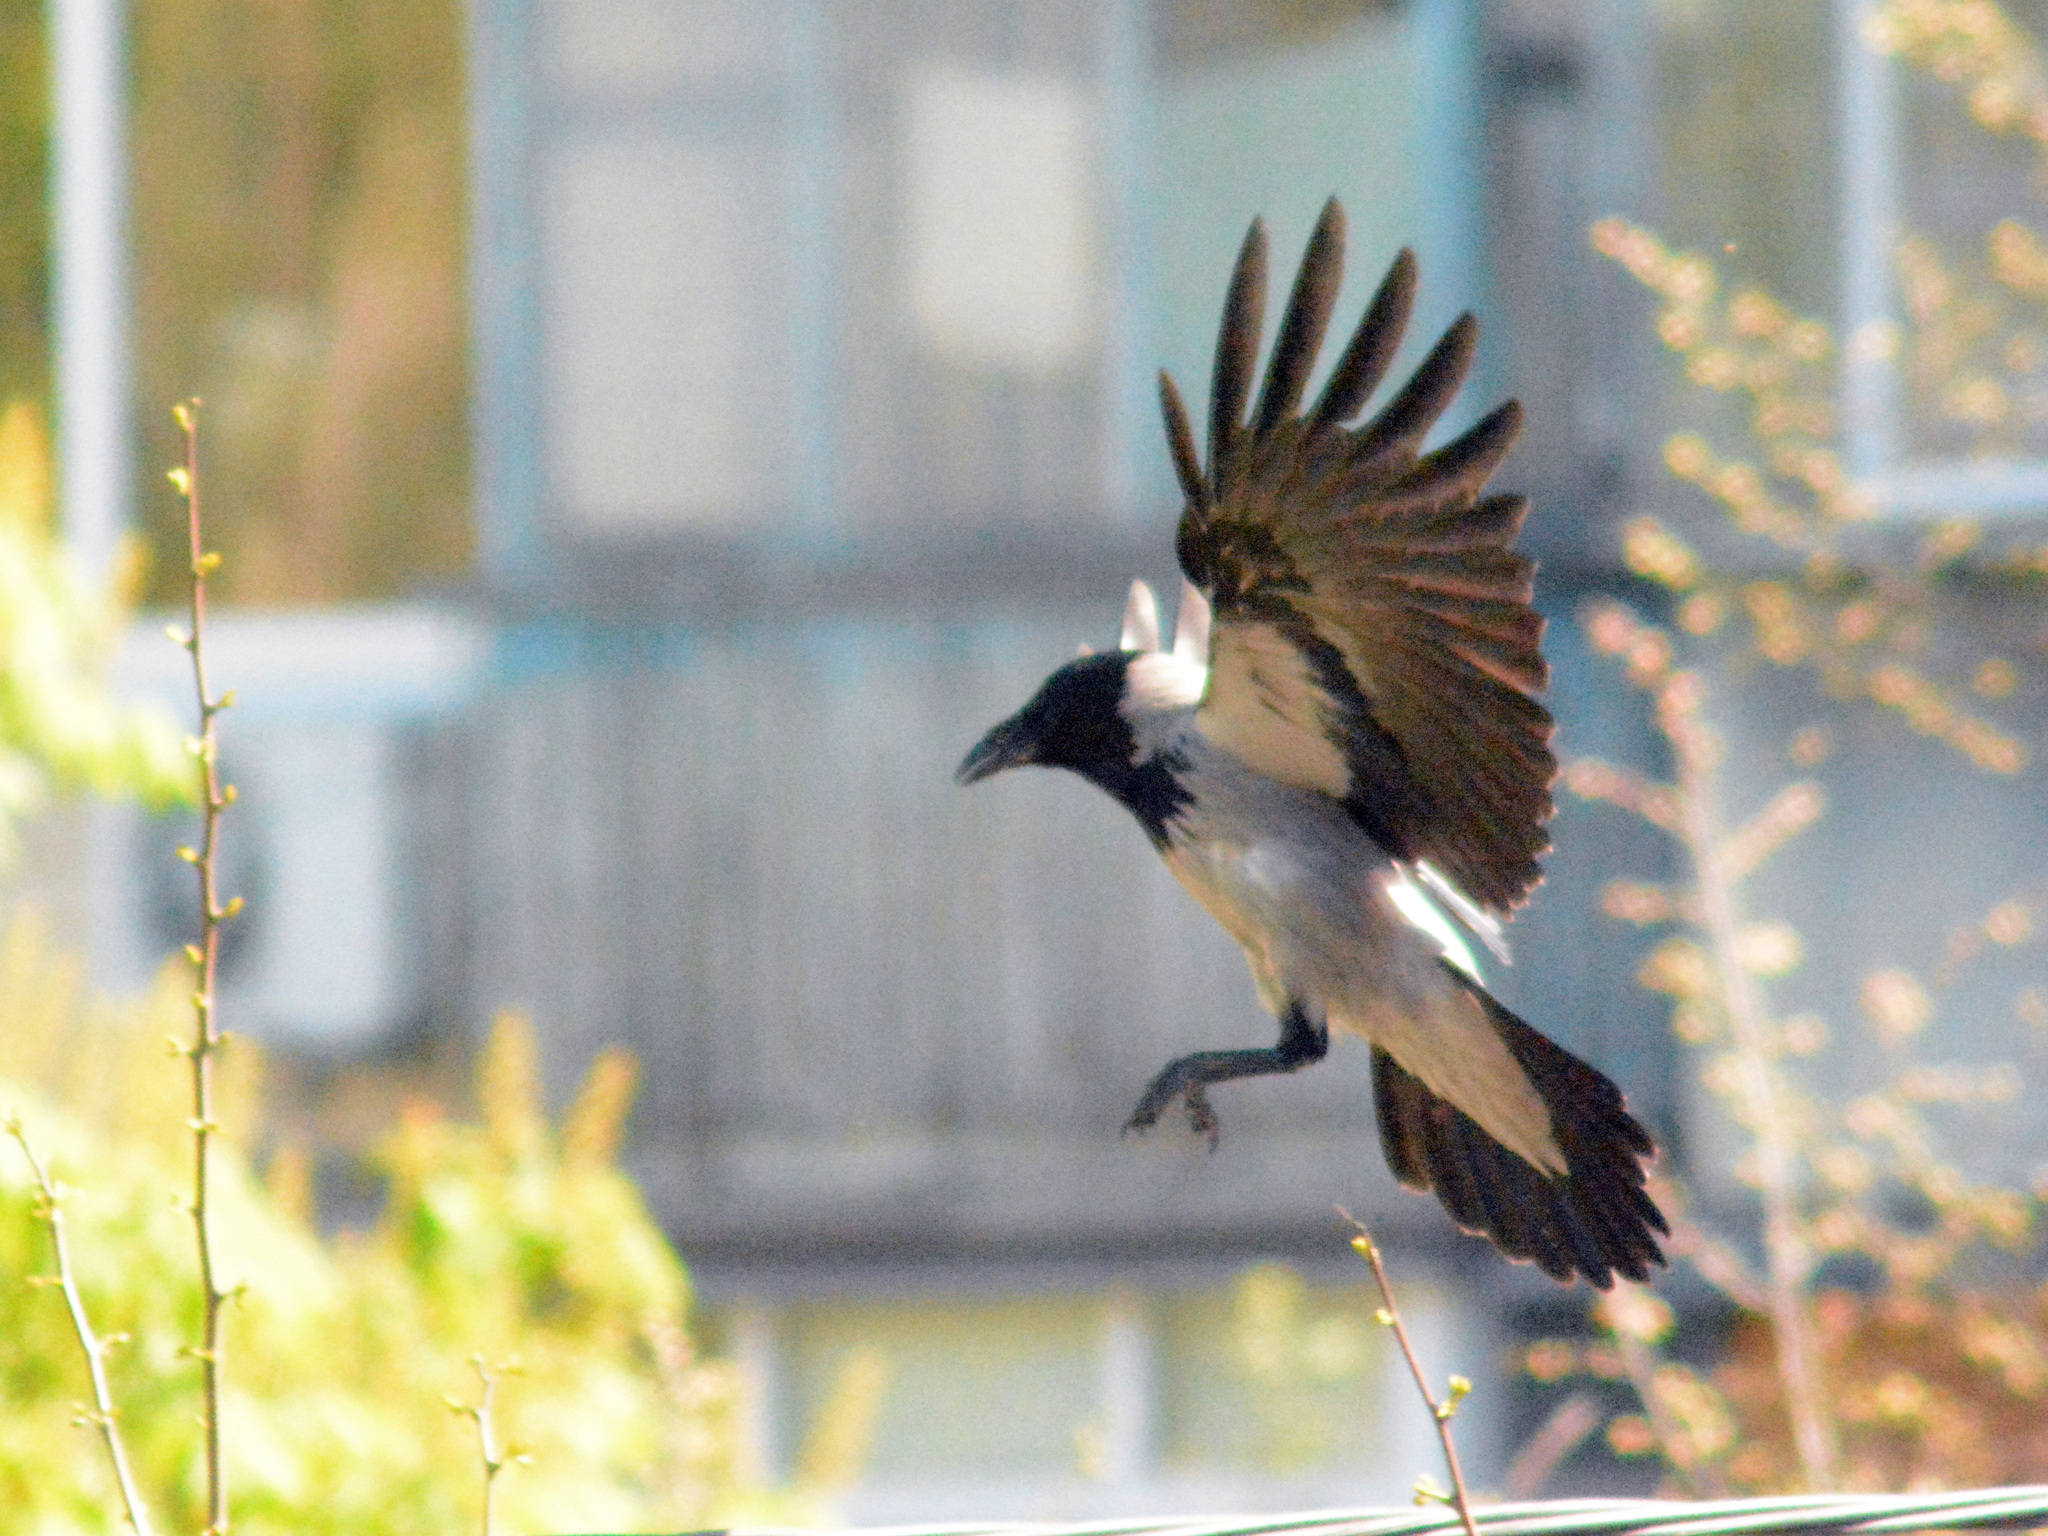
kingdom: Animalia
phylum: Chordata
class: Aves
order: Passeriformes
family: Corvidae
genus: Corvus
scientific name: Corvus cornix
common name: Hooded crow
